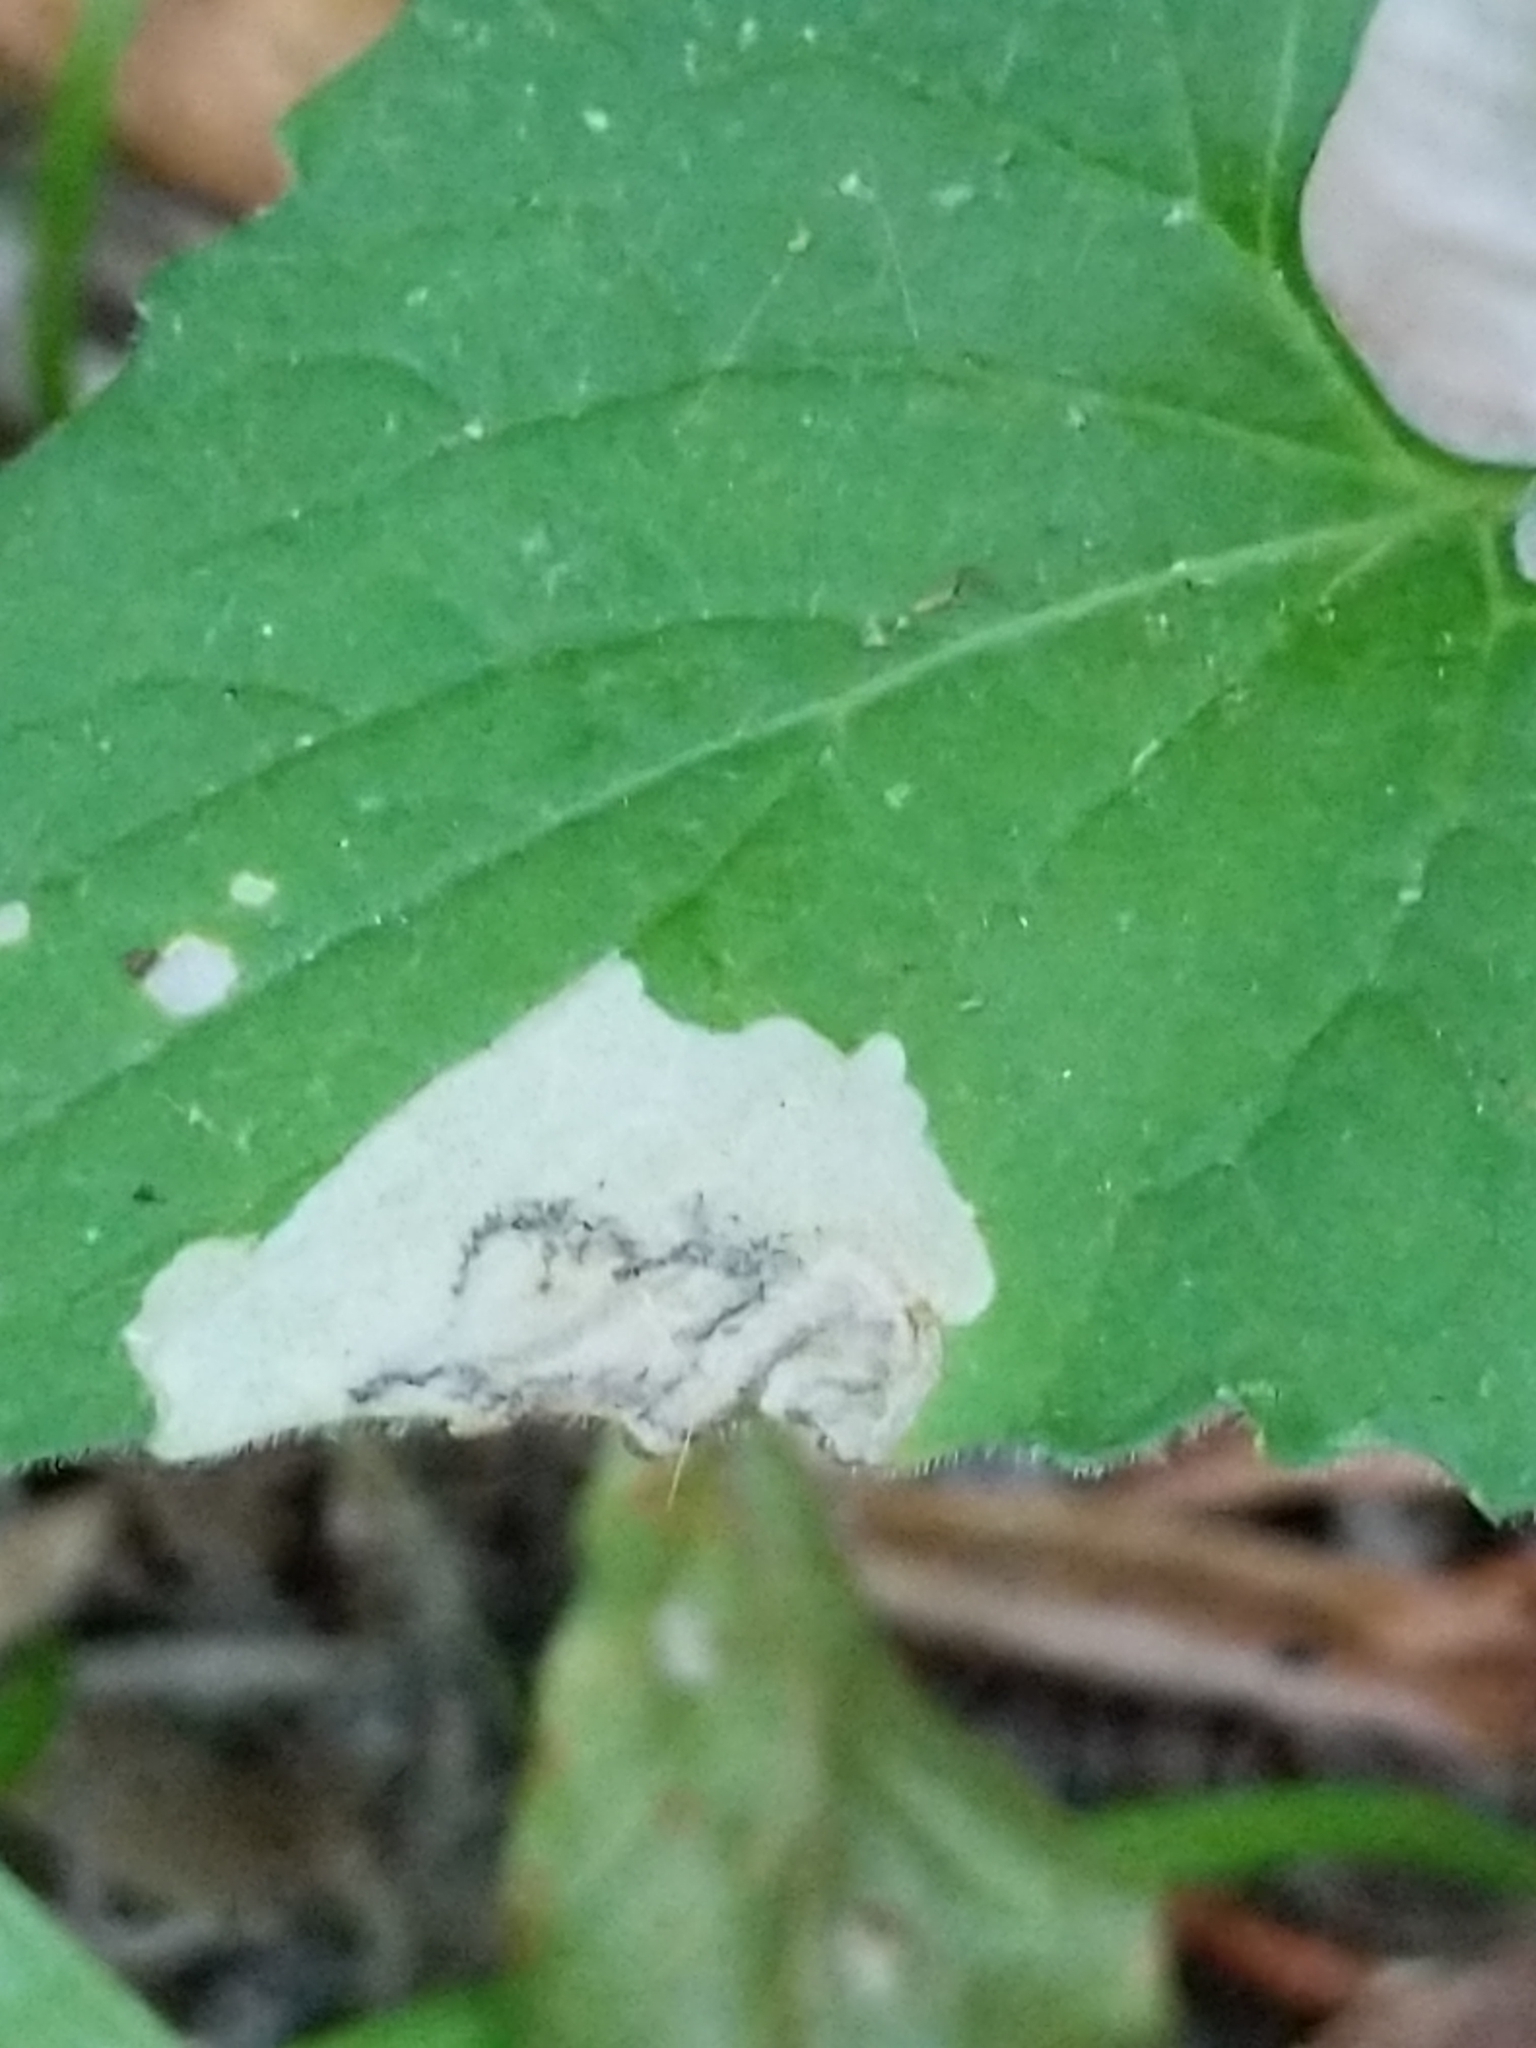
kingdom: Animalia
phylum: Arthropoda
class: Insecta
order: Hymenoptera
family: Tenthredinidae
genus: Nefusa
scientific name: Nefusa ambigua
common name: Violet leafmining sawfly
